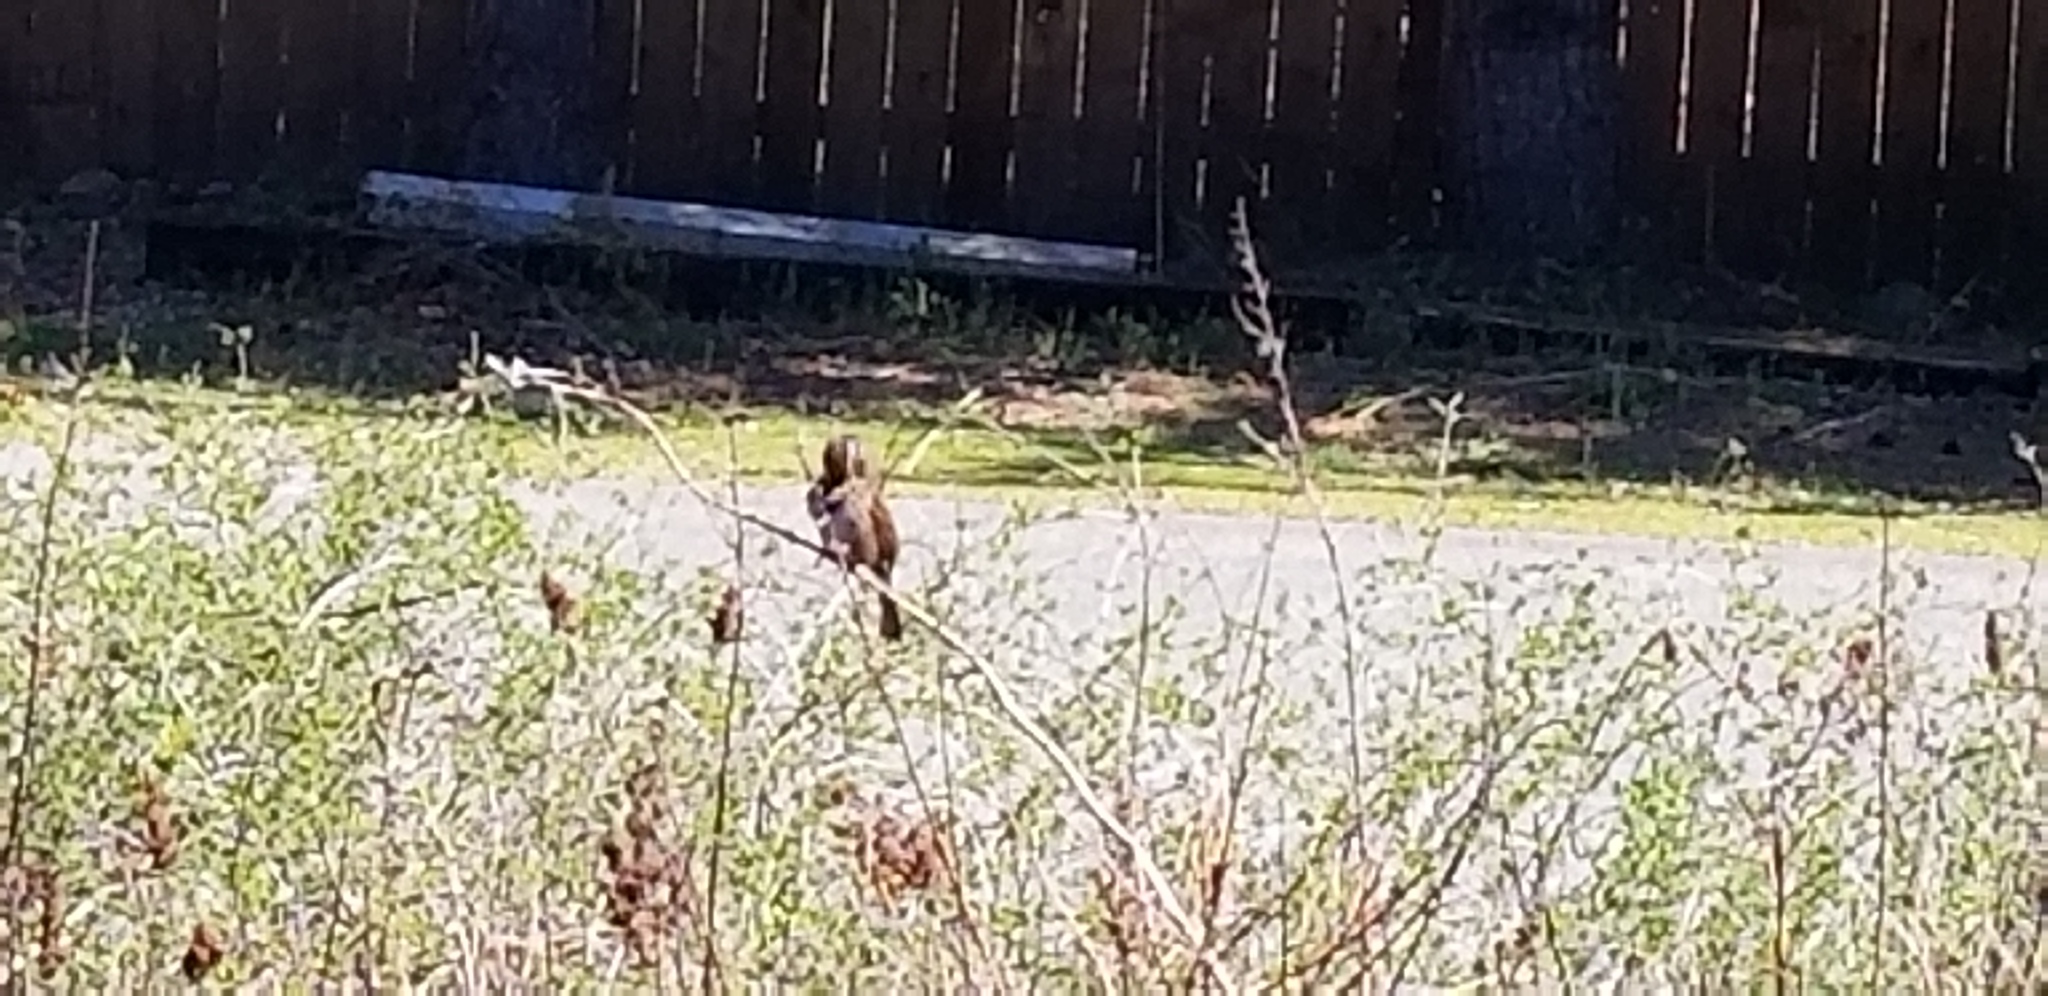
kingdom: Animalia
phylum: Chordata
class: Aves
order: Passeriformes
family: Passerellidae
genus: Melospiza
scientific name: Melospiza melodia
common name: Song sparrow
